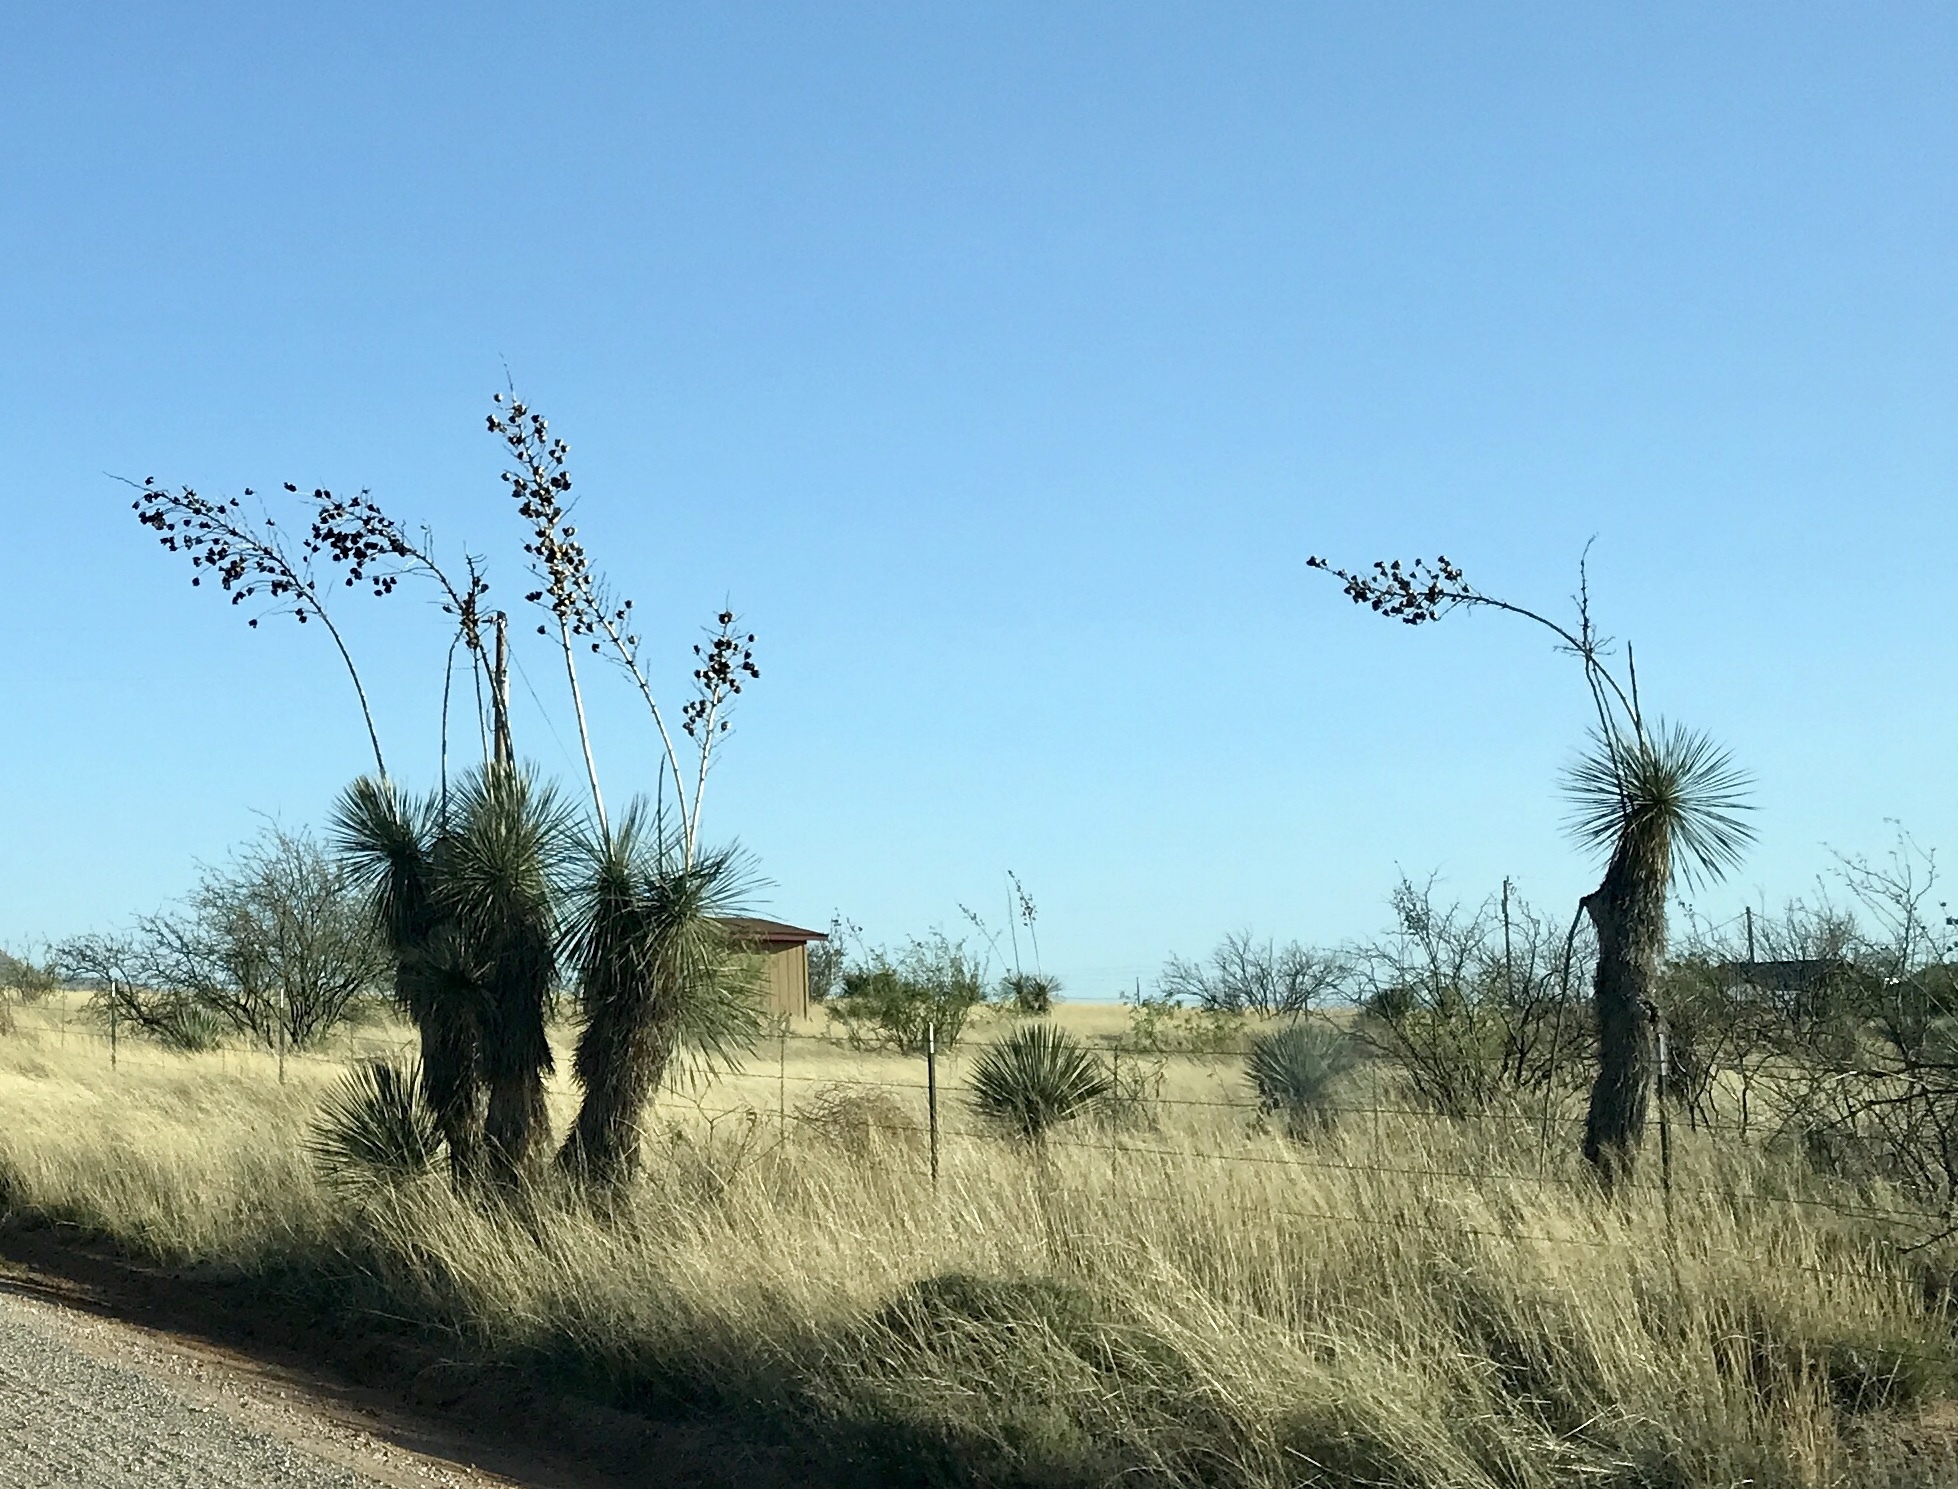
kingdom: Plantae
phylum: Tracheophyta
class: Liliopsida
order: Asparagales
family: Asparagaceae
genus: Yucca
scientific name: Yucca elata
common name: Palmella
